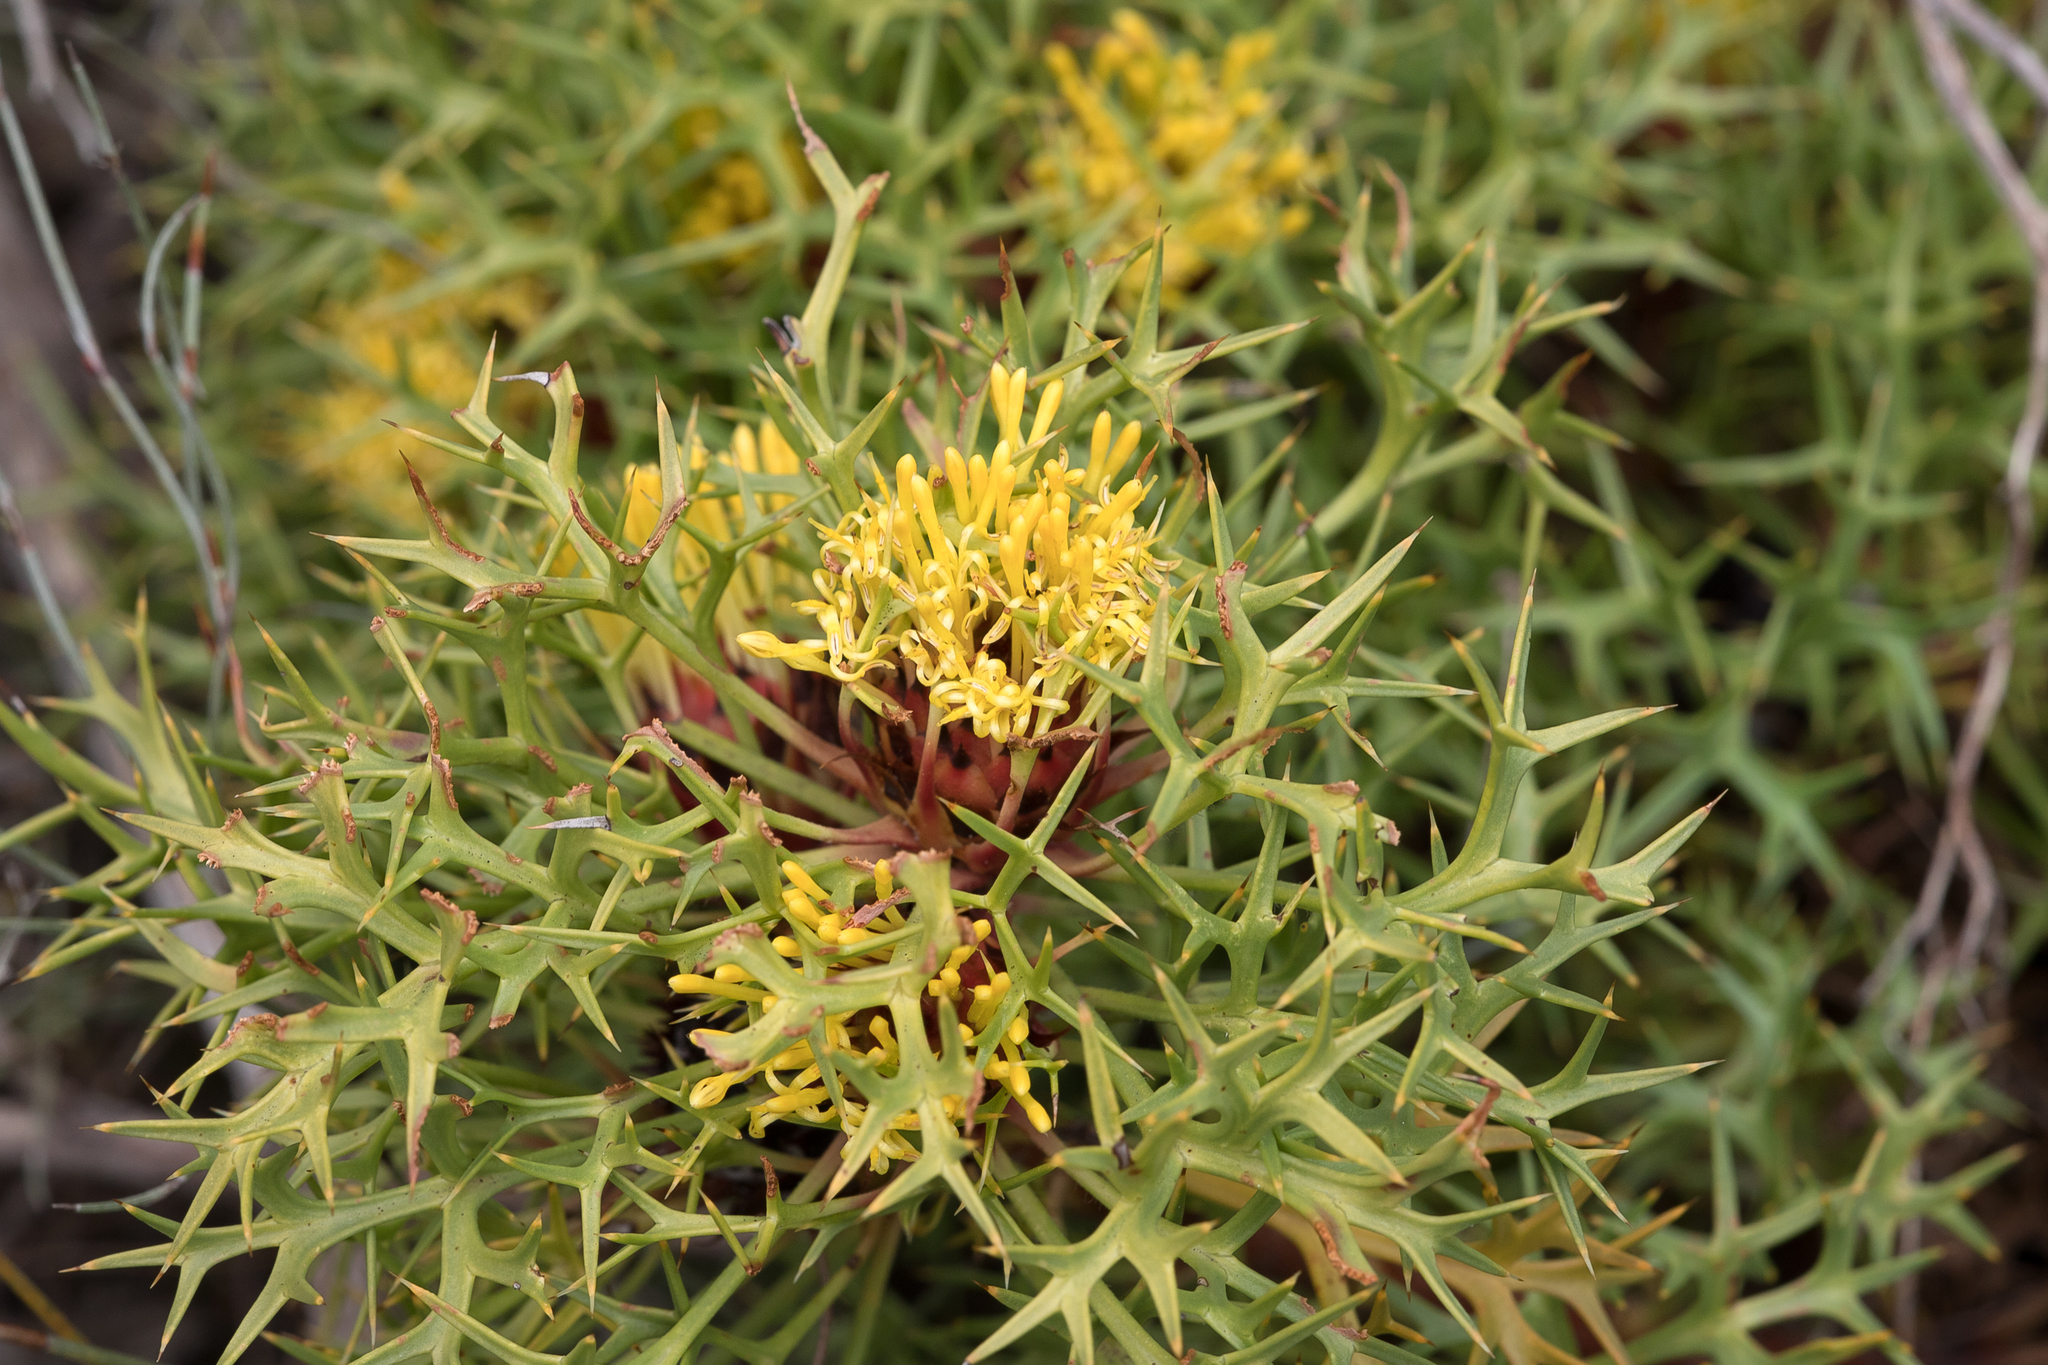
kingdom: Plantae
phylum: Tracheophyta
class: Magnoliopsida
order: Proteales
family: Proteaceae
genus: Isopogon
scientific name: Isopogon ceratophyllus
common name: Horny cone-bush
